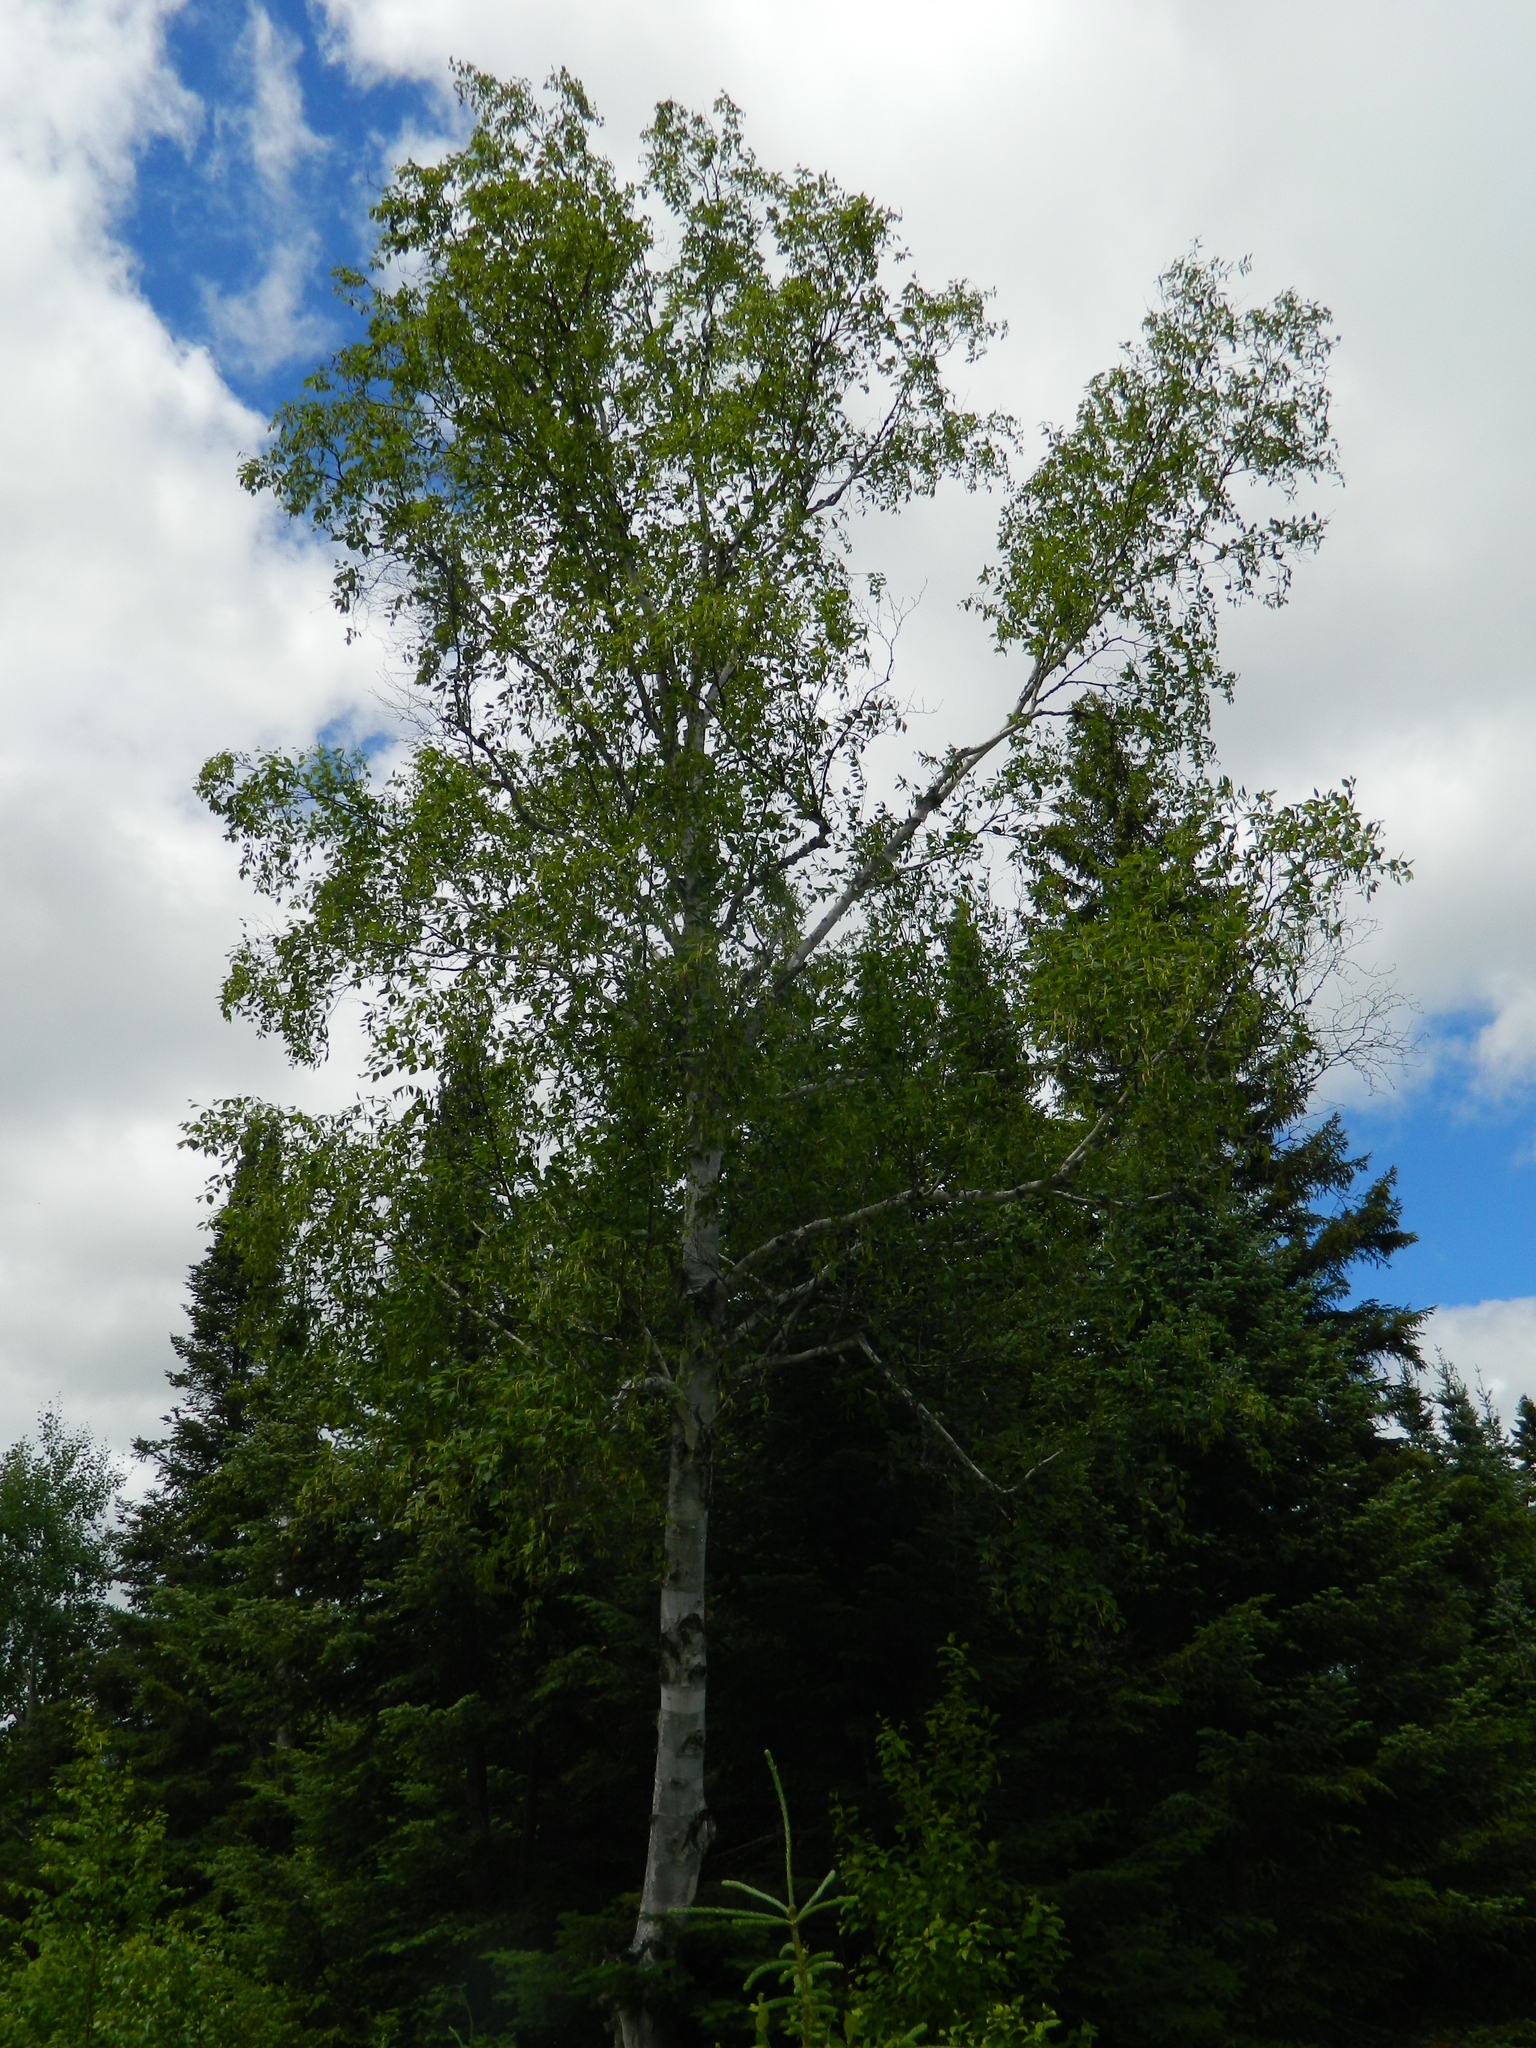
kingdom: Plantae
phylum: Tracheophyta
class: Magnoliopsida
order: Fagales
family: Betulaceae
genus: Betula
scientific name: Betula papyrifera
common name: Paper birch
